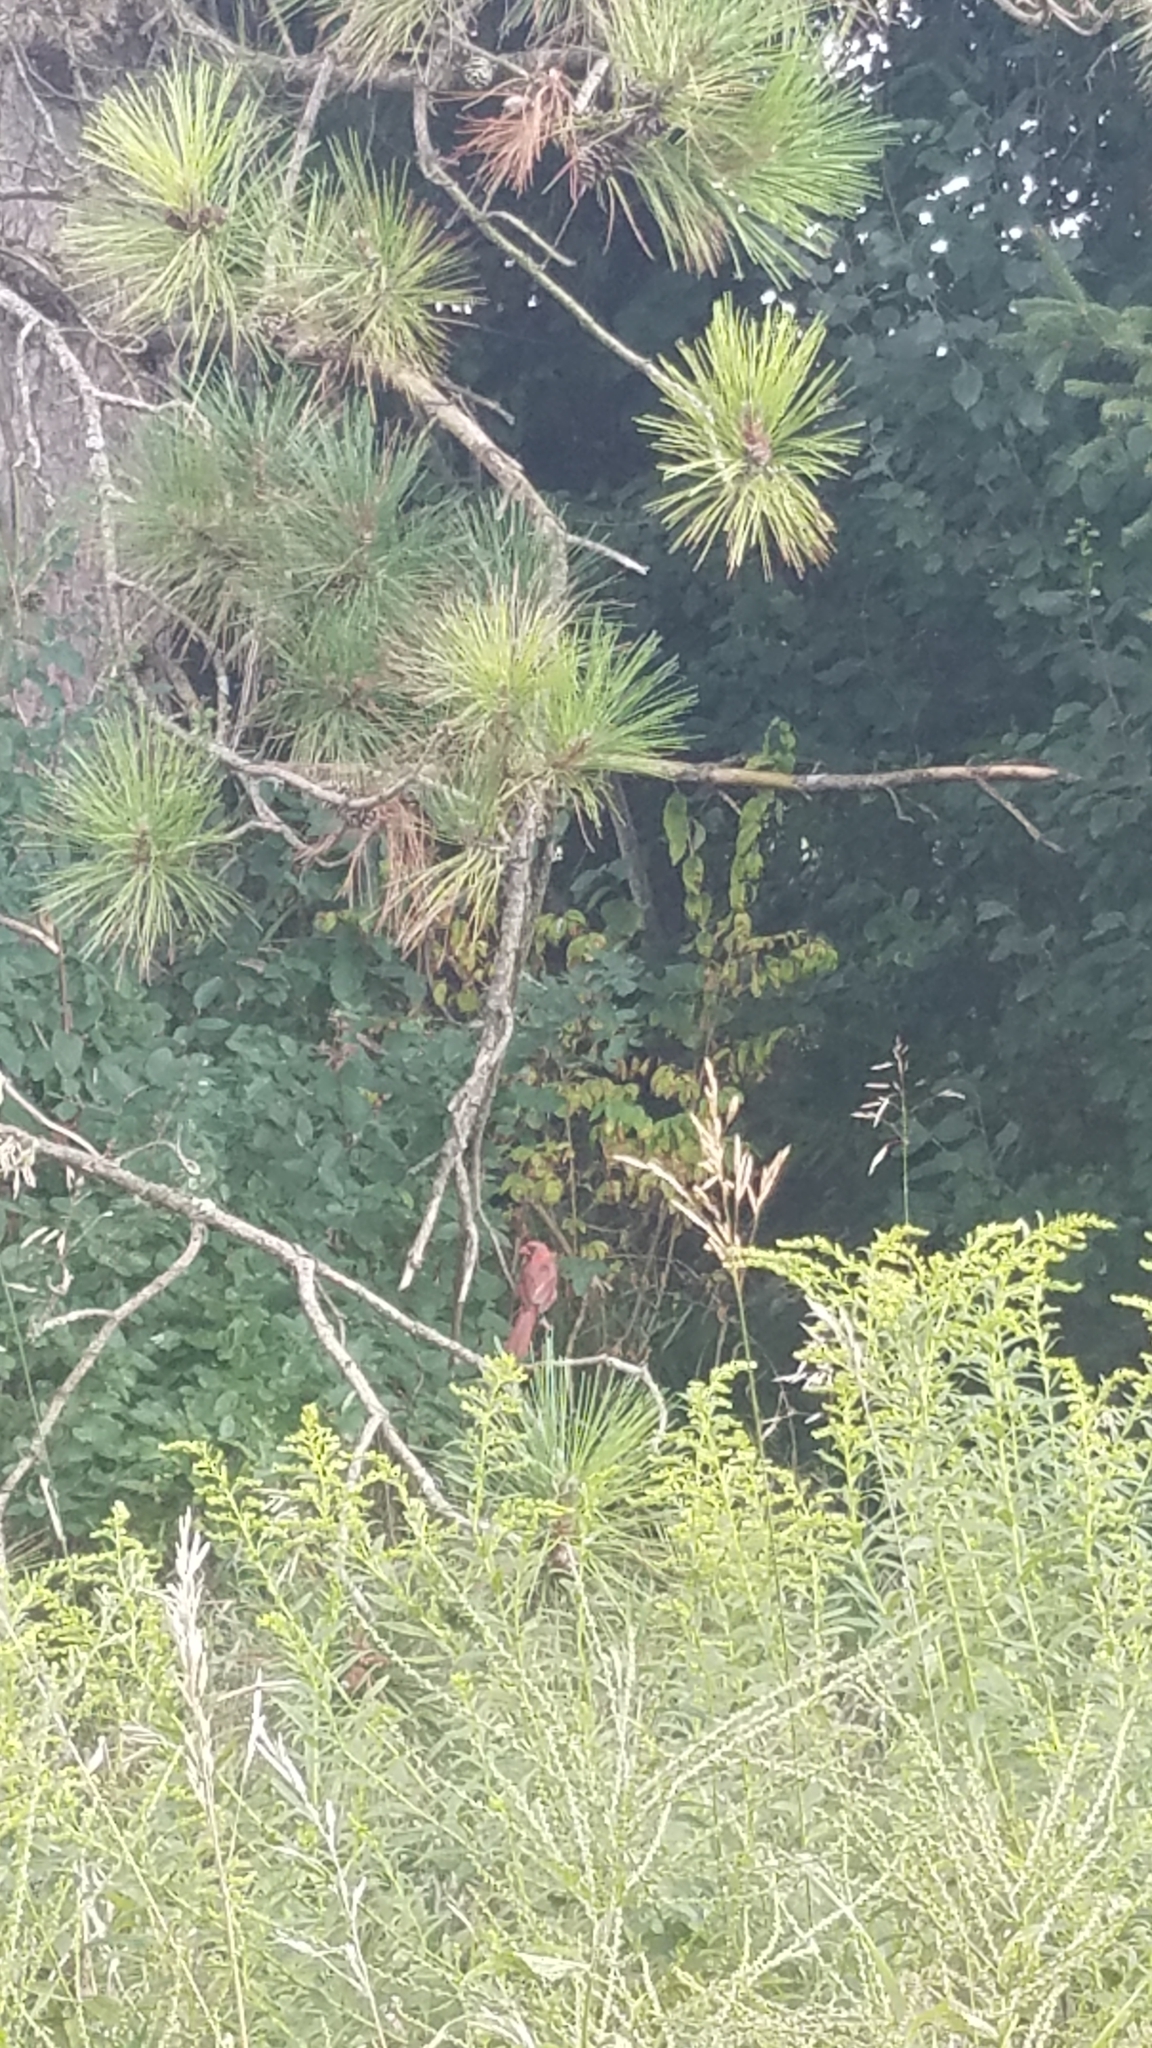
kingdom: Animalia
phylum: Chordata
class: Aves
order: Passeriformes
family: Cardinalidae
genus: Cardinalis
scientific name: Cardinalis cardinalis
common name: Northern cardinal
